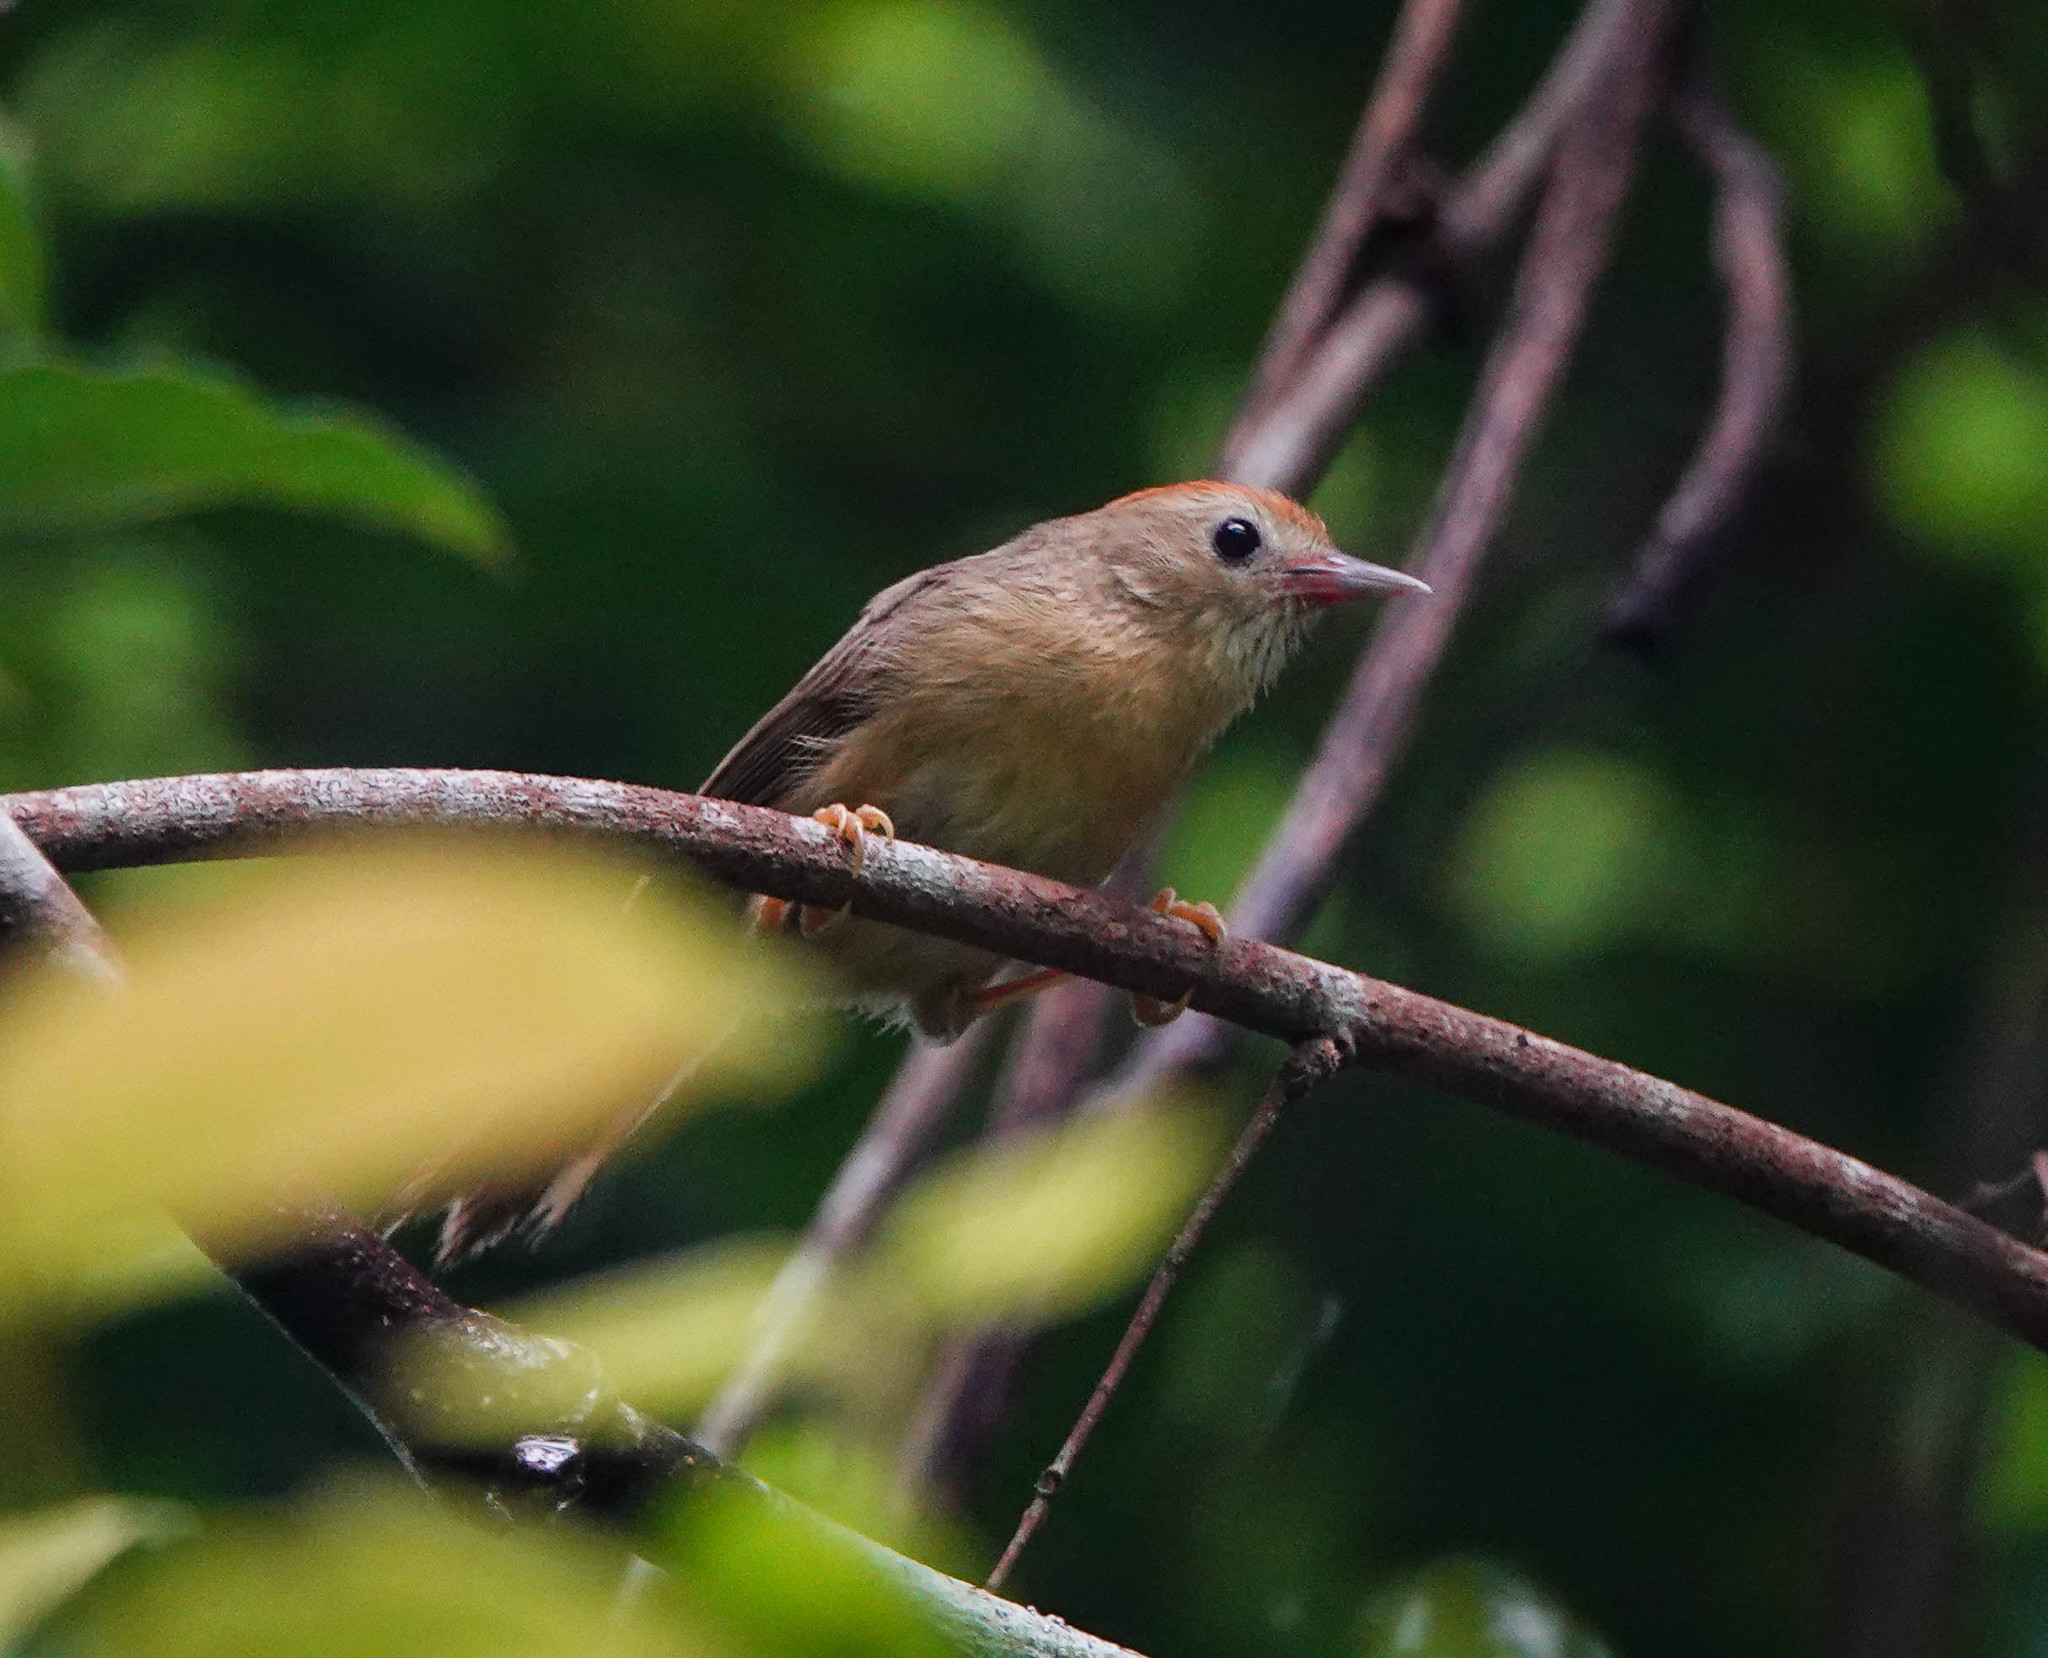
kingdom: Animalia
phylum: Chordata
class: Aves
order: Passeriformes
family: Timaliidae
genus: Stachyridopsis
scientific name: Stachyridopsis rufifrons
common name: Rufous-fronted babbler
